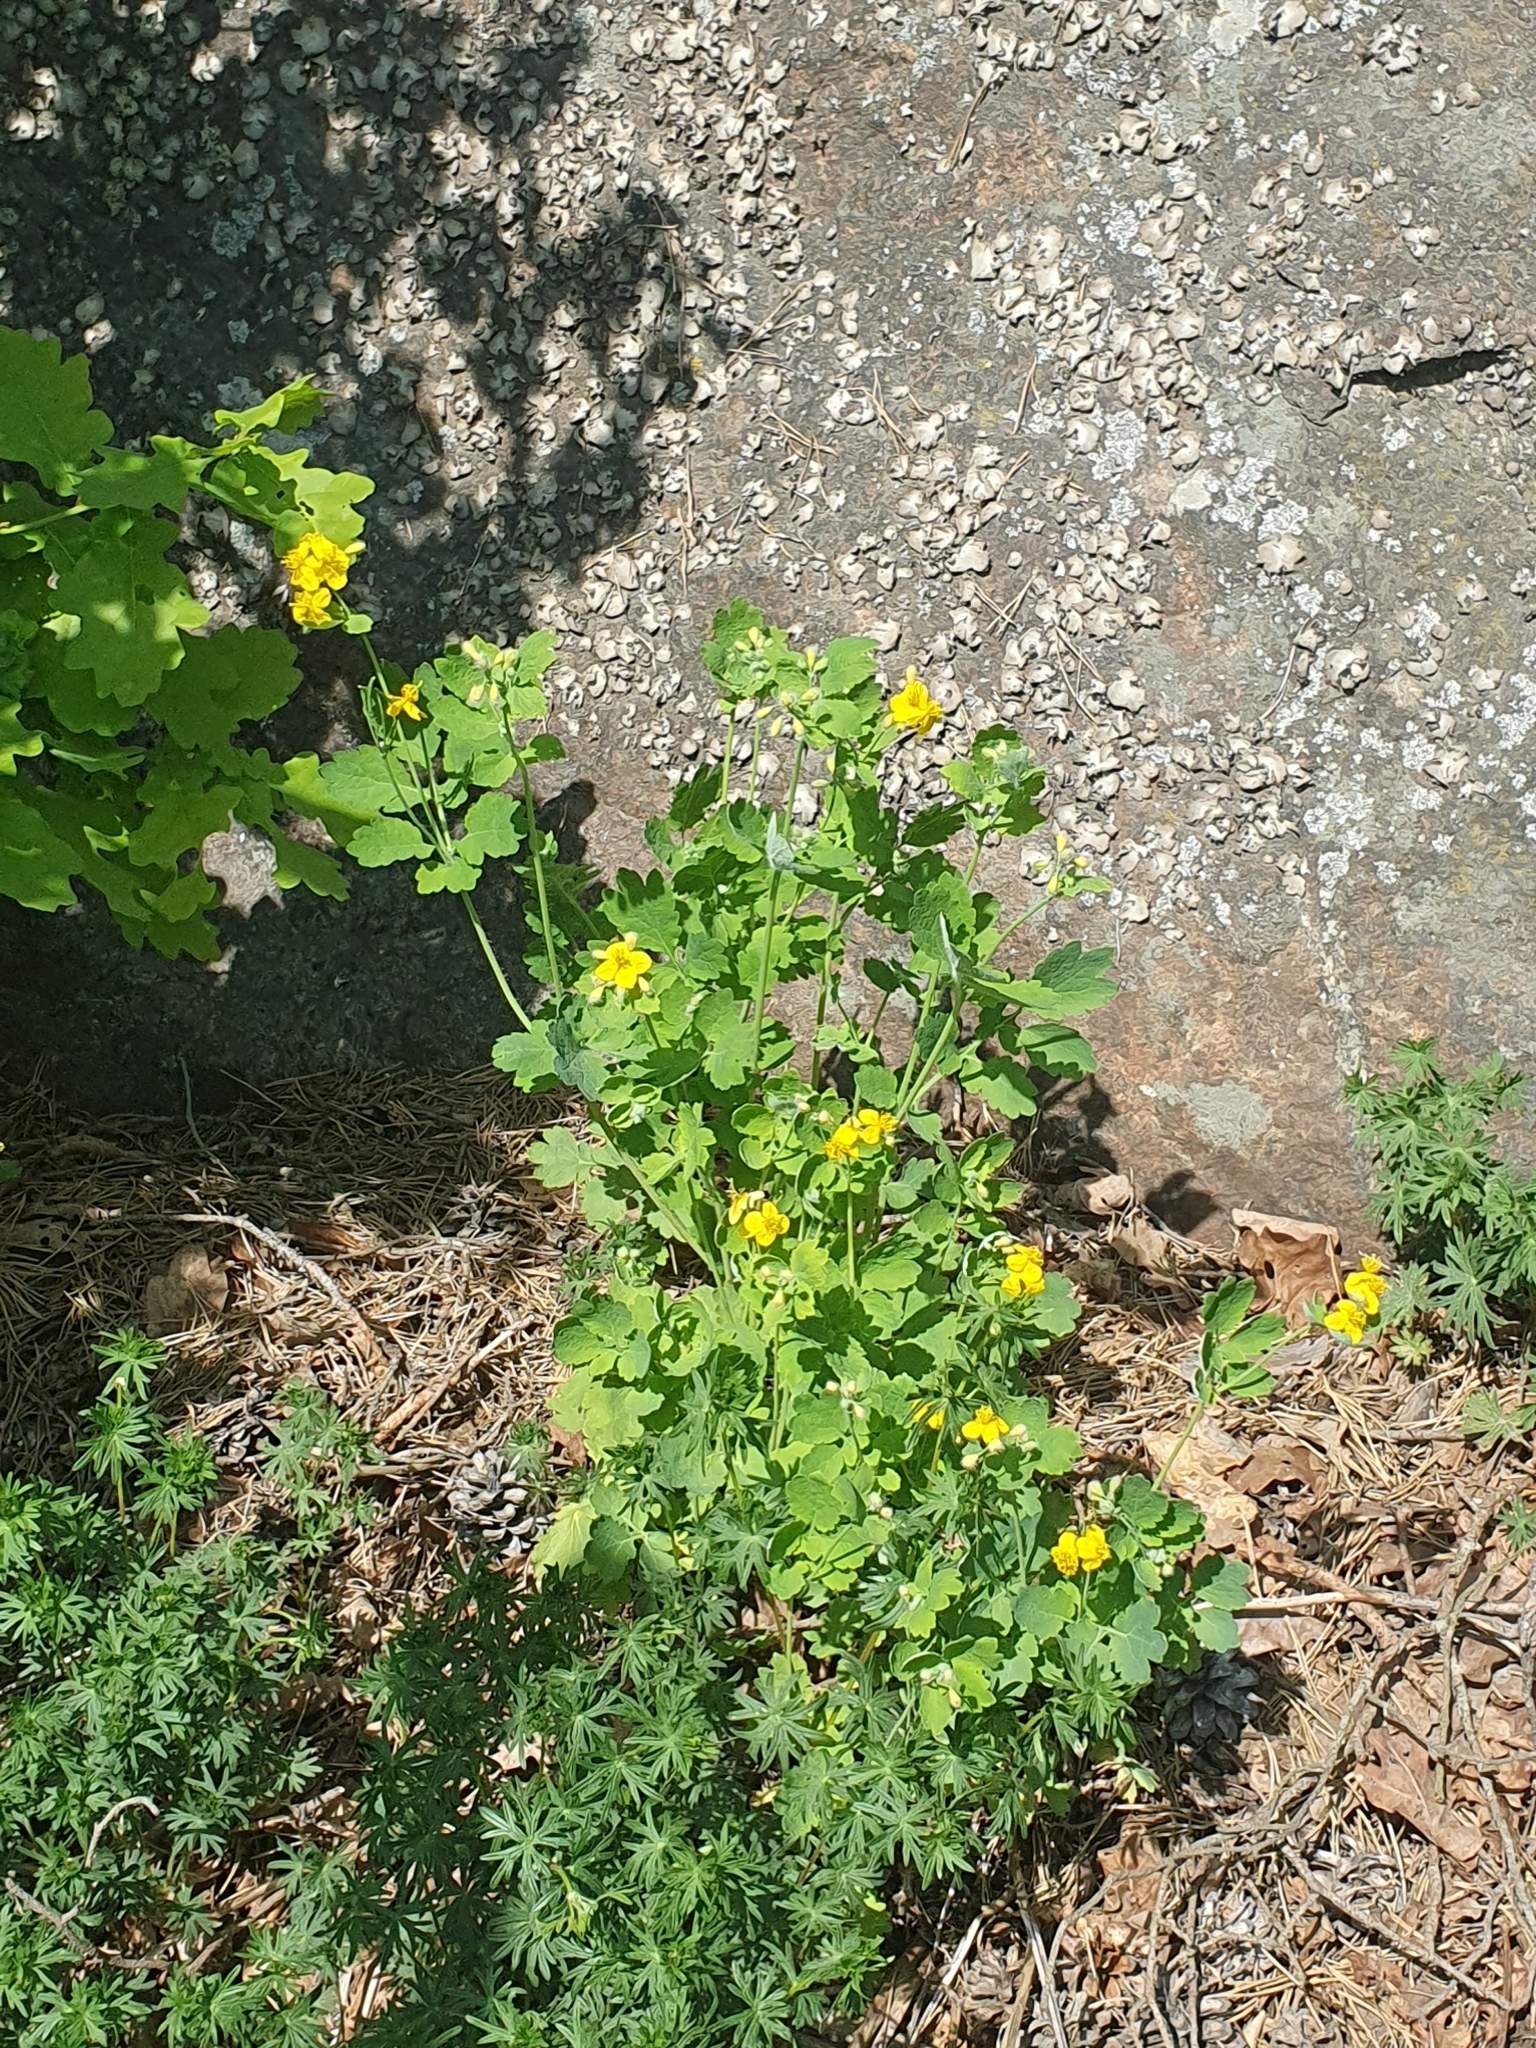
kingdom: Plantae
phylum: Tracheophyta
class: Magnoliopsida
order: Ranunculales
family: Papaveraceae
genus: Chelidonium
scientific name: Chelidonium majus
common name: Greater celandine
